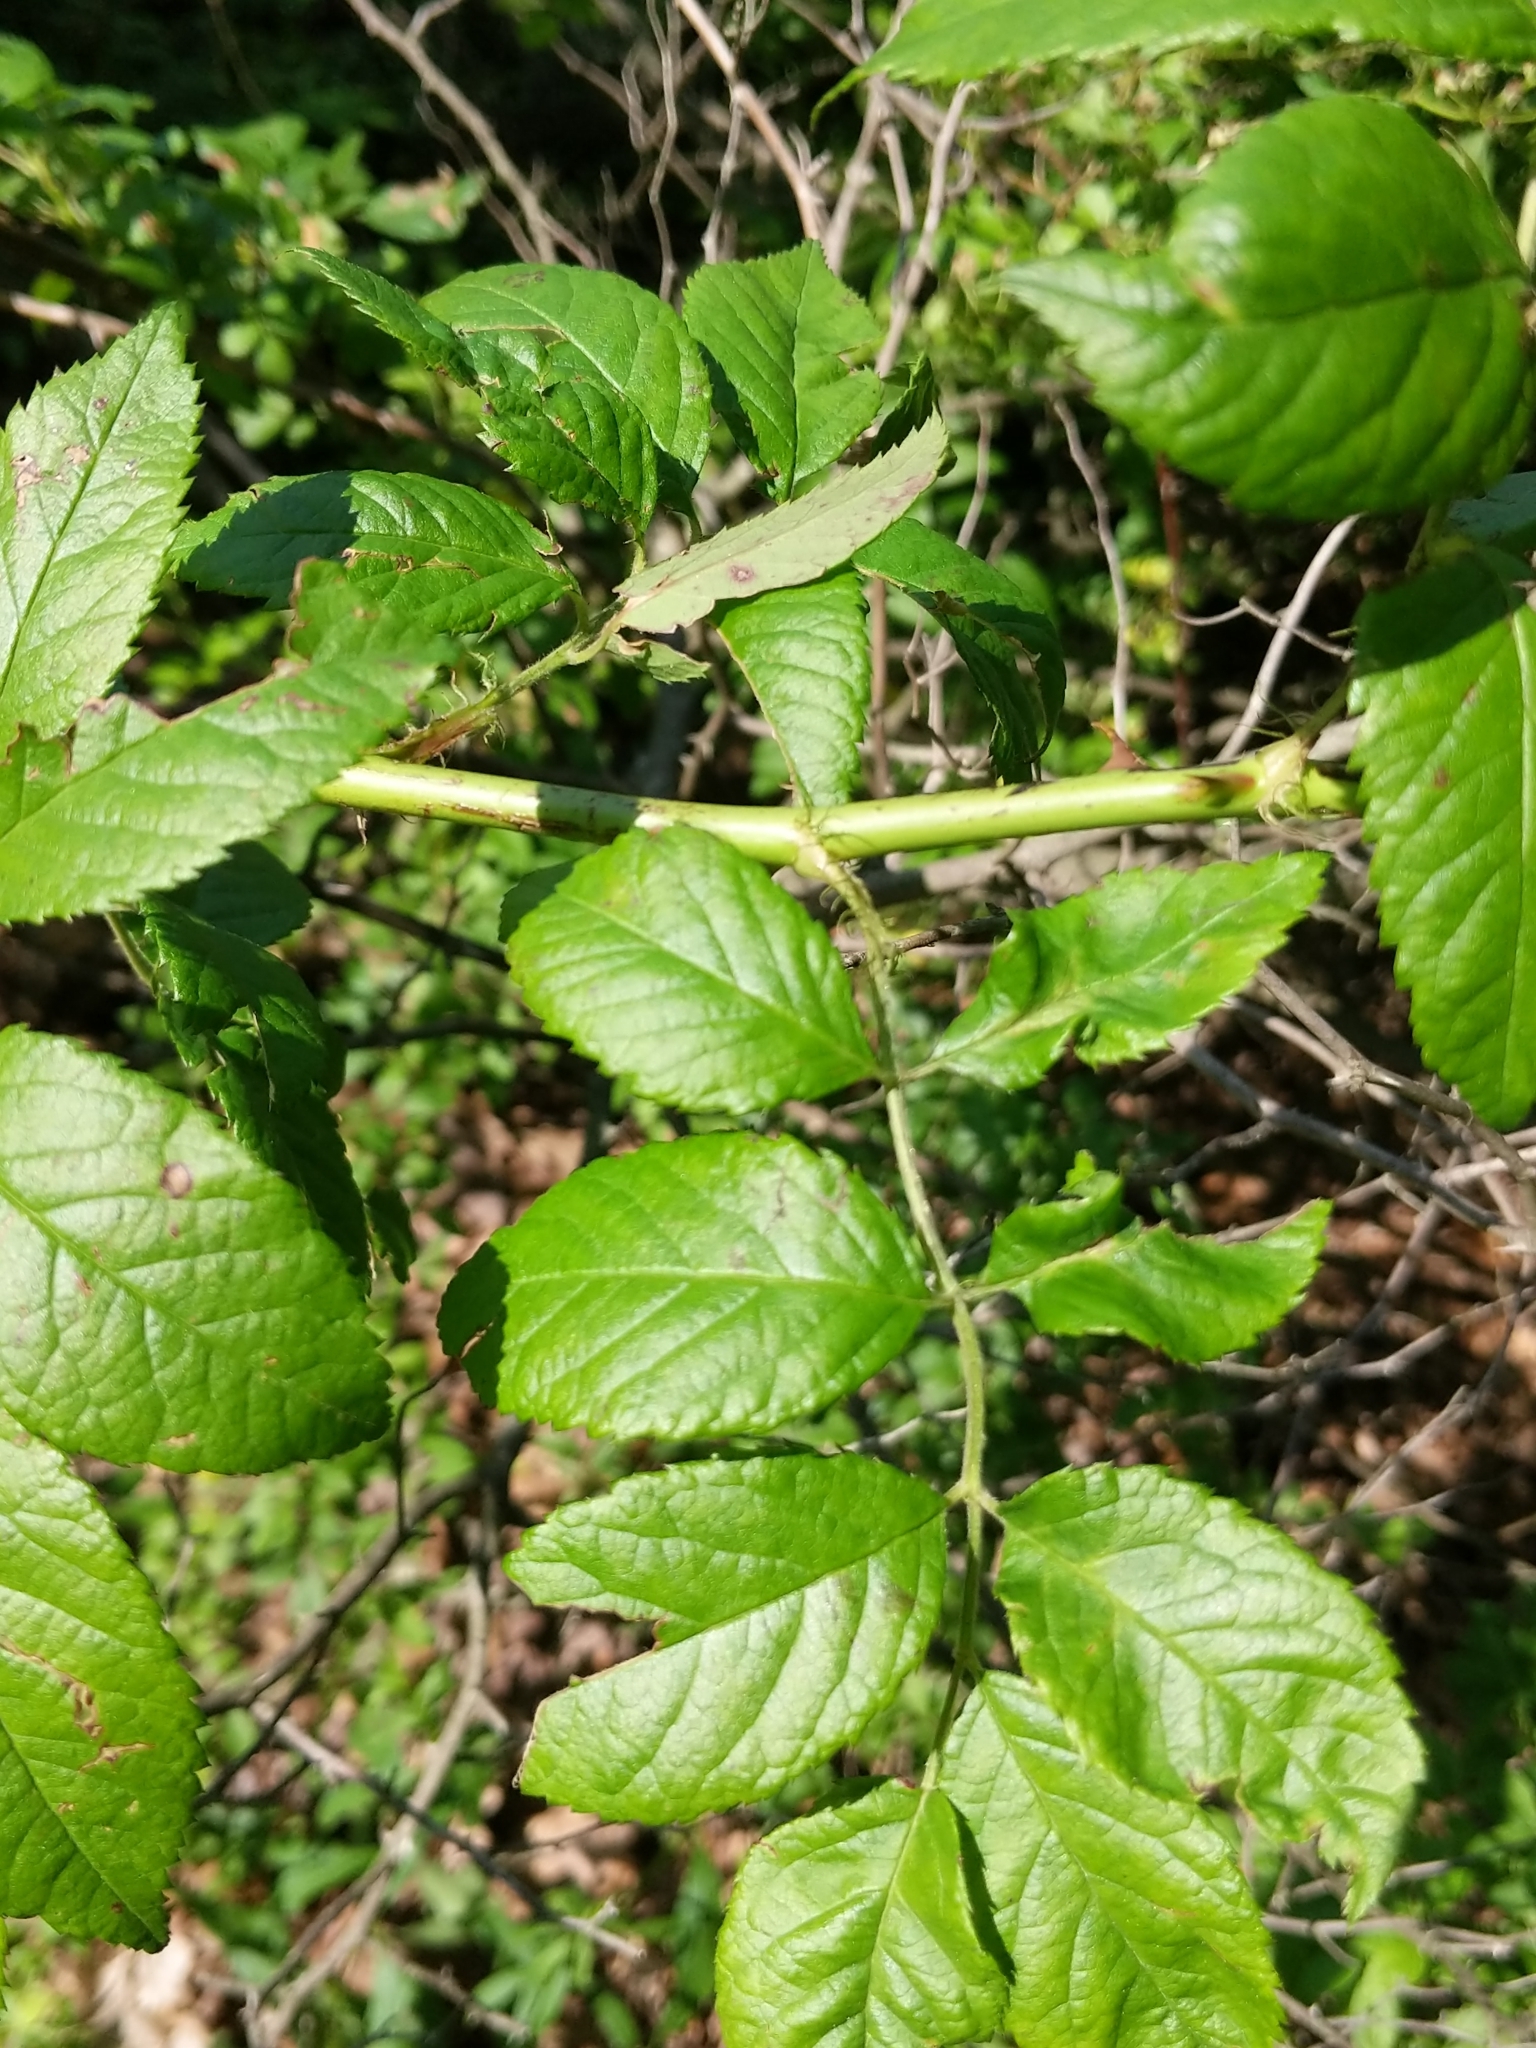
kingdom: Plantae
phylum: Tracheophyta
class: Magnoliopsida
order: Rosales
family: Rosaceae
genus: Rosa
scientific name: Rosa multiflora
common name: Multiflora rose
